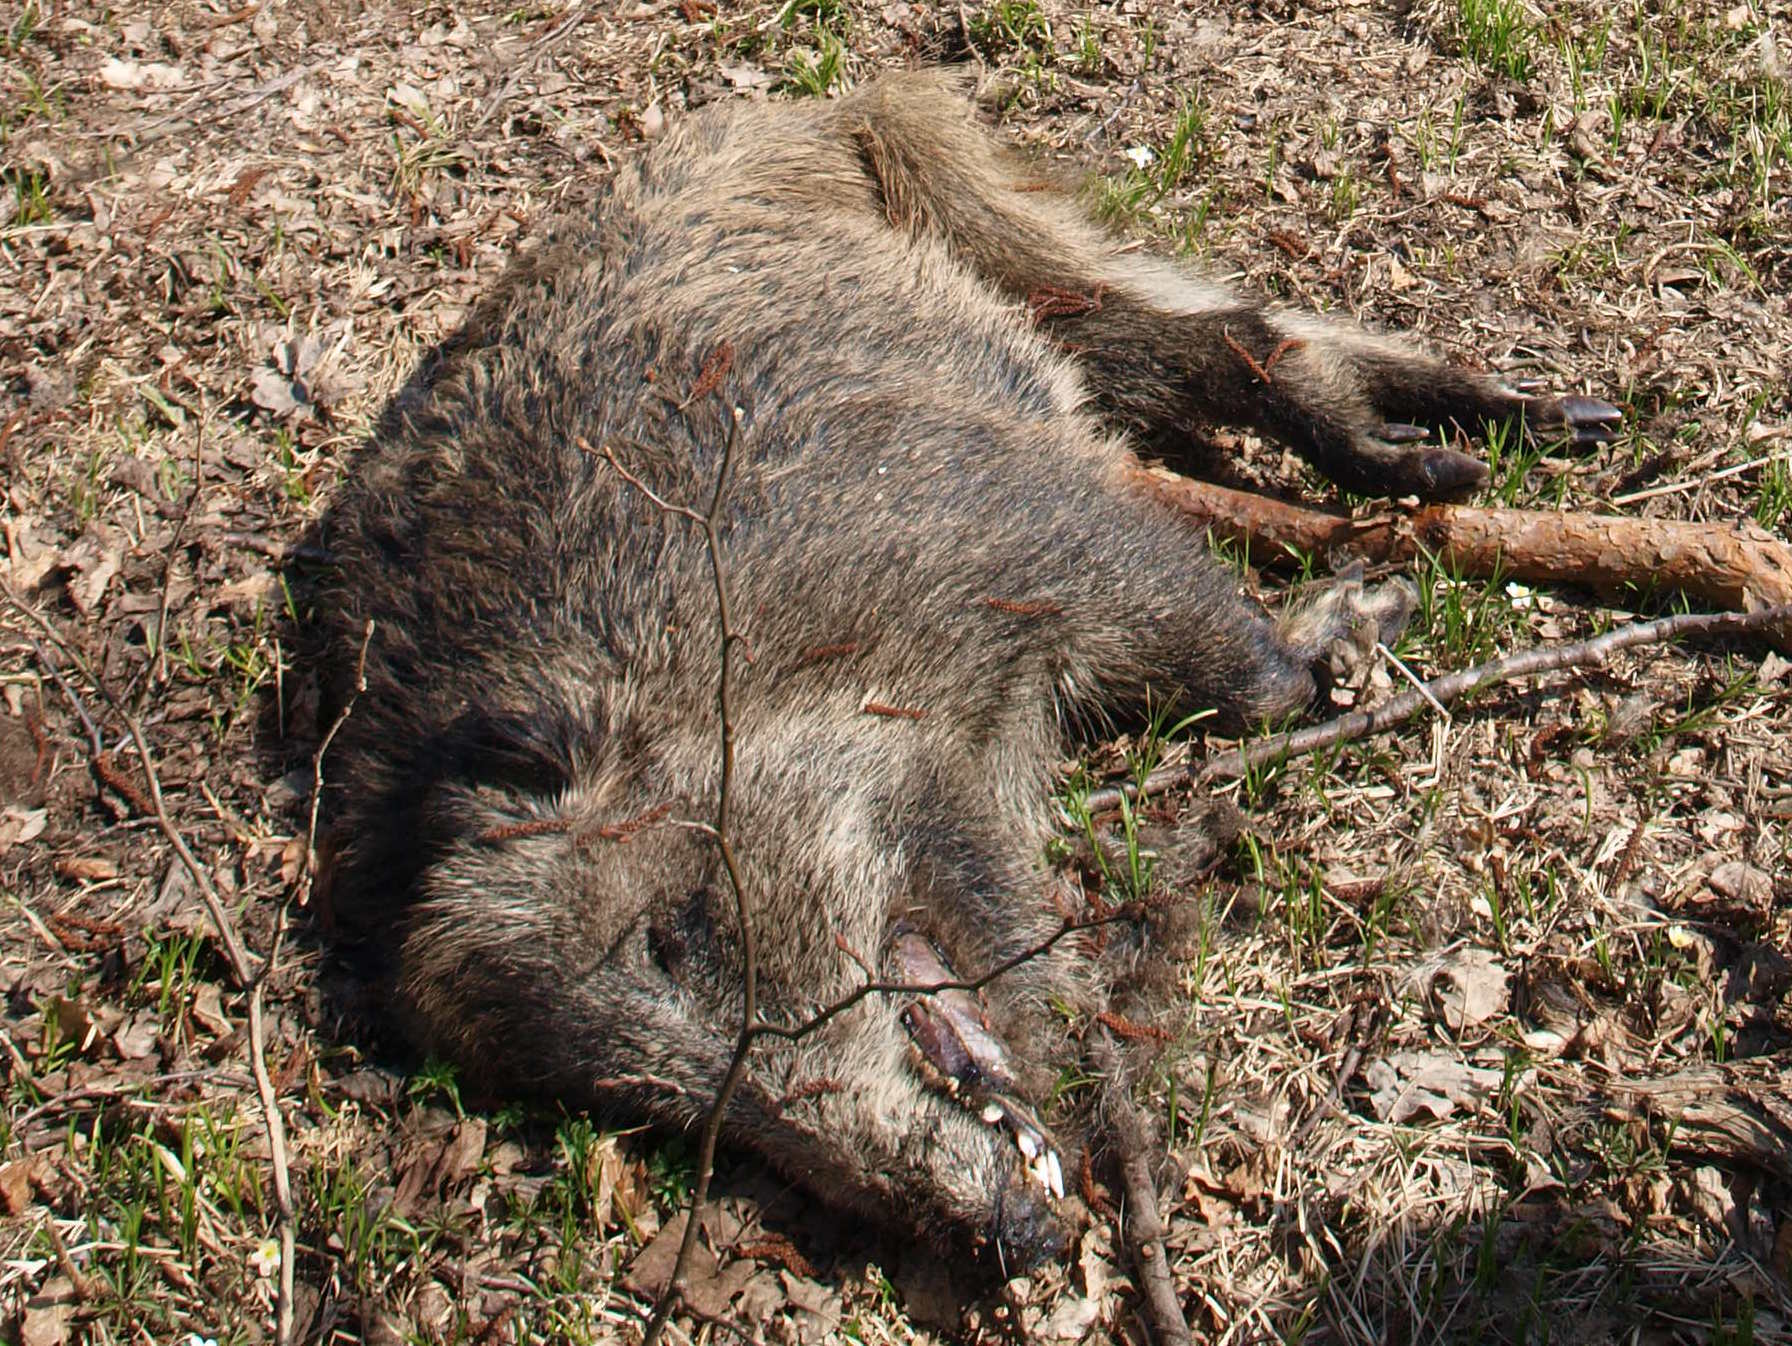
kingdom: Animalia
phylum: Chordata
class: Mammalia
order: Artiodactyla
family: Suidae
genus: Sus
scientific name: Sus scrofa
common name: Wild boar
